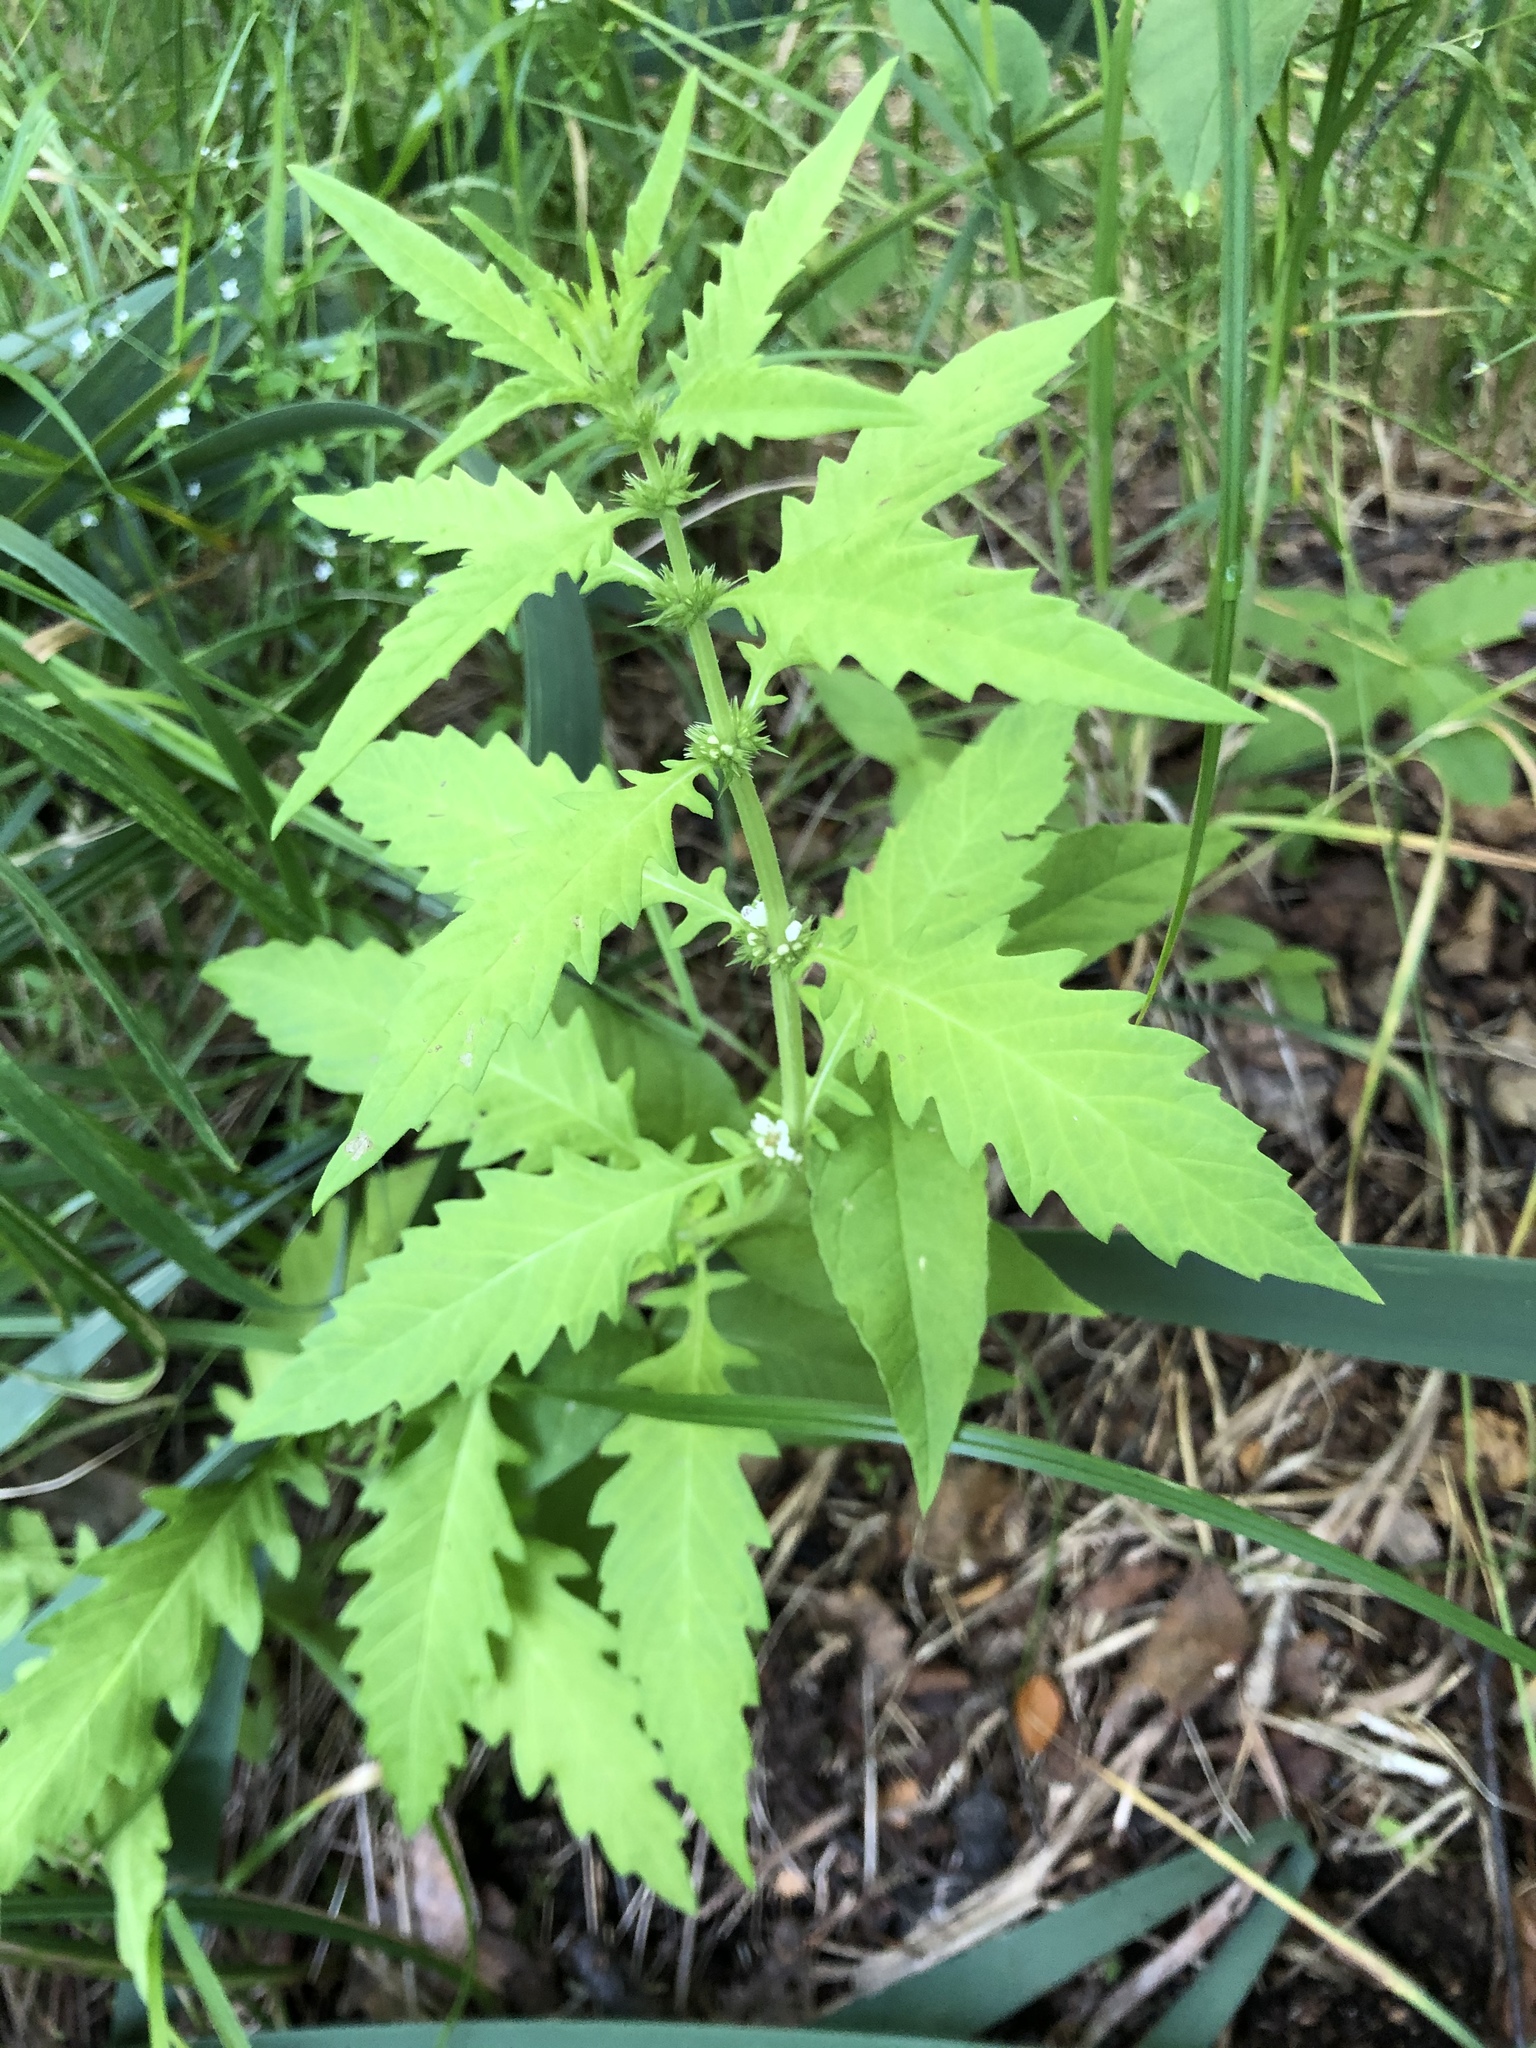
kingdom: Plantae
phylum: Tracheophyta
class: Magnoliopsida
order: Lamiales
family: Lamiaceae
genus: Lycopus
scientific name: Lycopus europaeus
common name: European bugleweed
